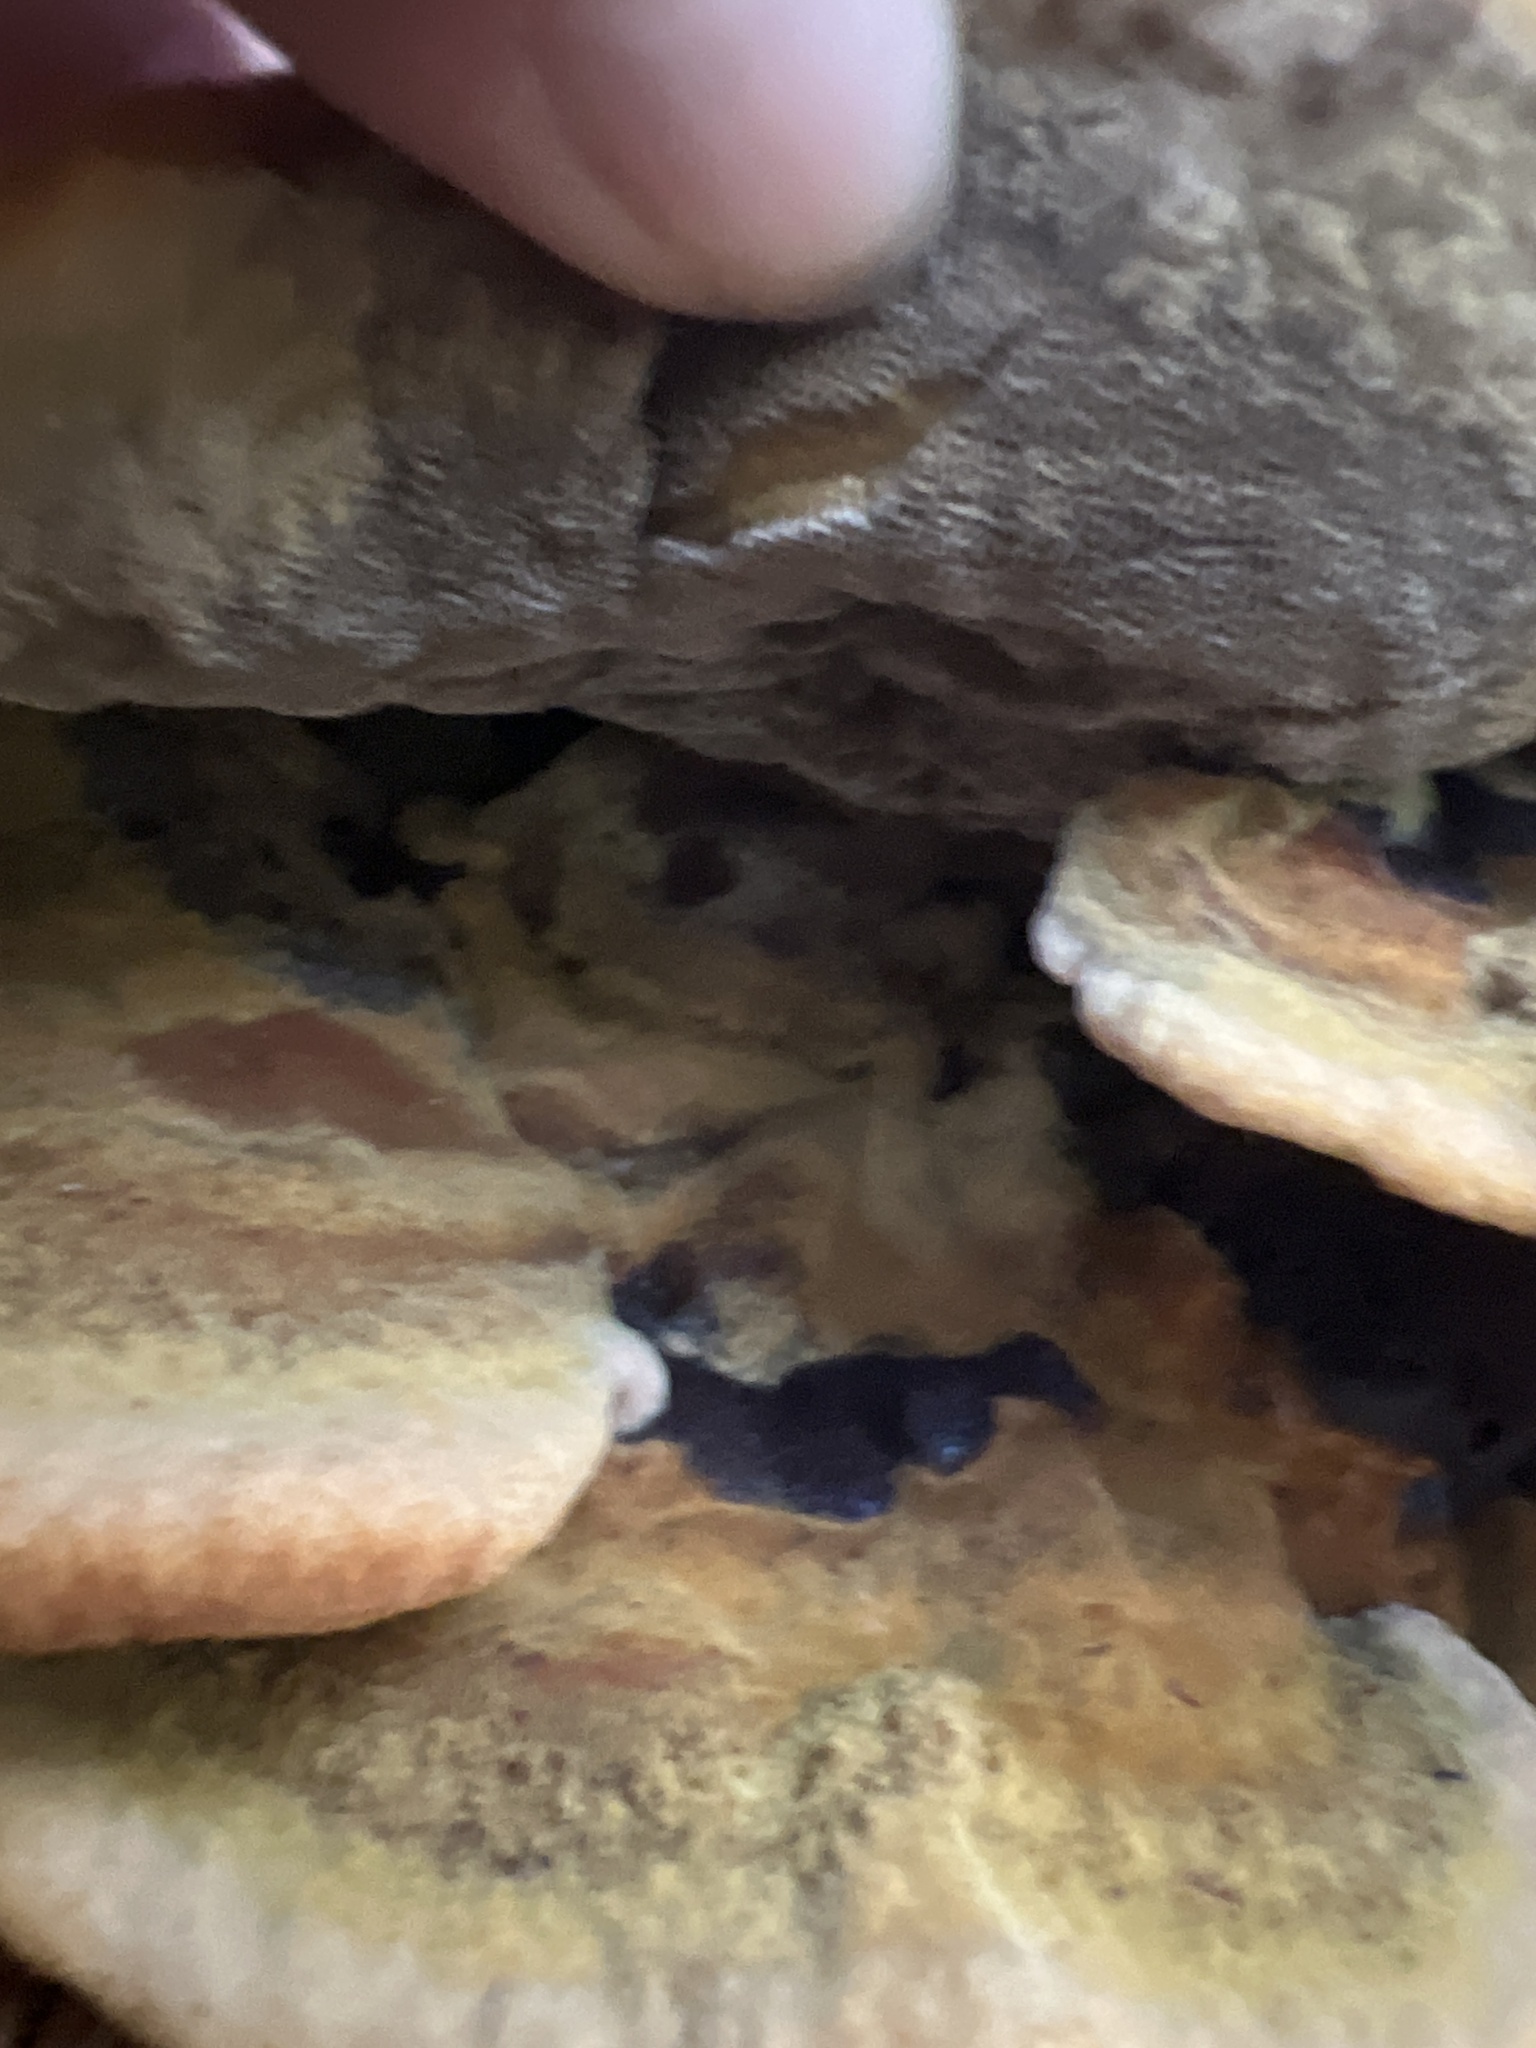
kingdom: Fungi
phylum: Basidiomycota
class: Agaricomycetes
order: Polyporales
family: Laetiporaceae
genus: Phaeolus
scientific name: Phaeolus schweinitzii
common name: Dyer's mazegill
